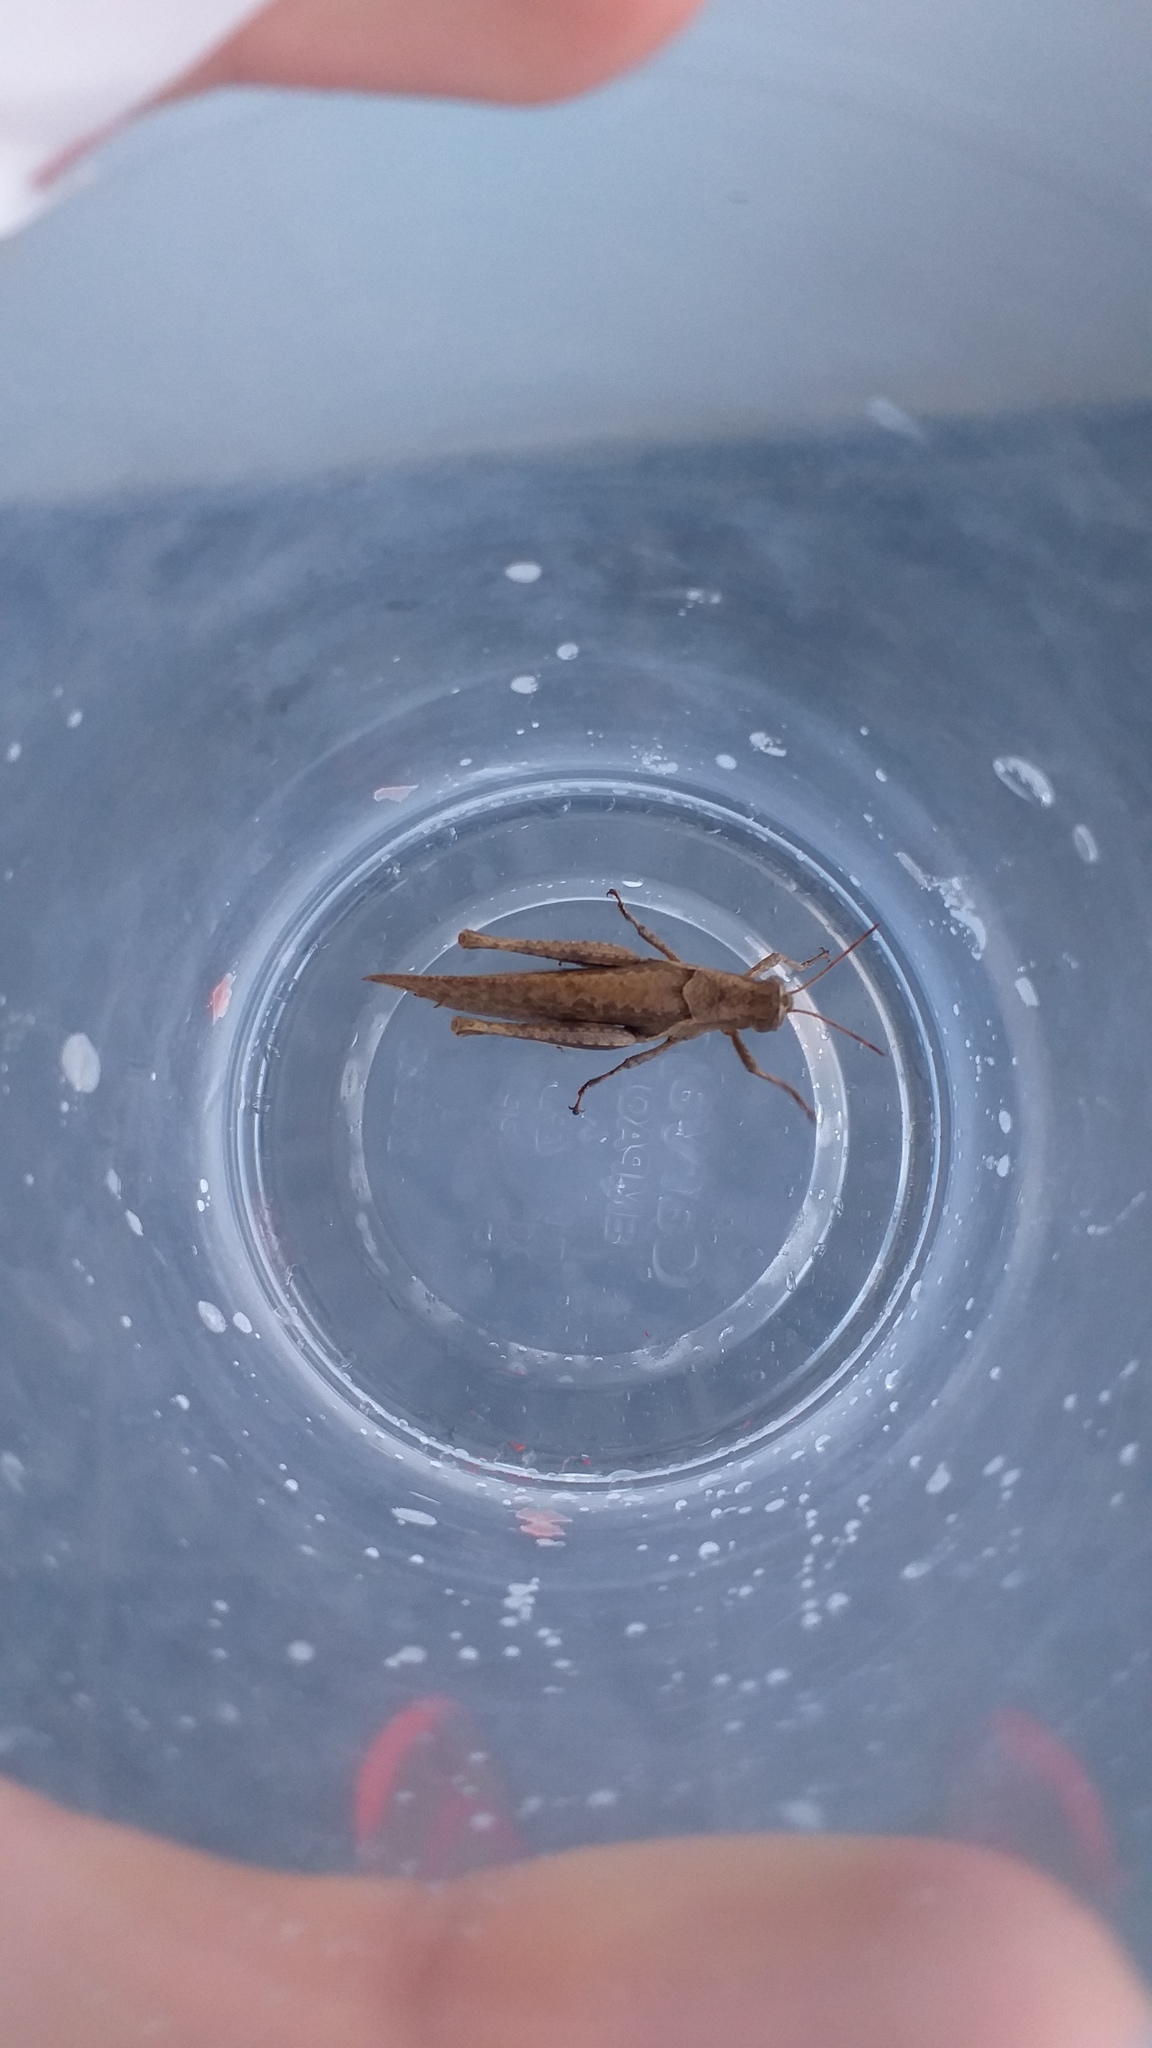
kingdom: Animalia
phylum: Arthropoda
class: Insecta
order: Orthoptera
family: Acrididae
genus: Abracris
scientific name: Abracris flavolineata
